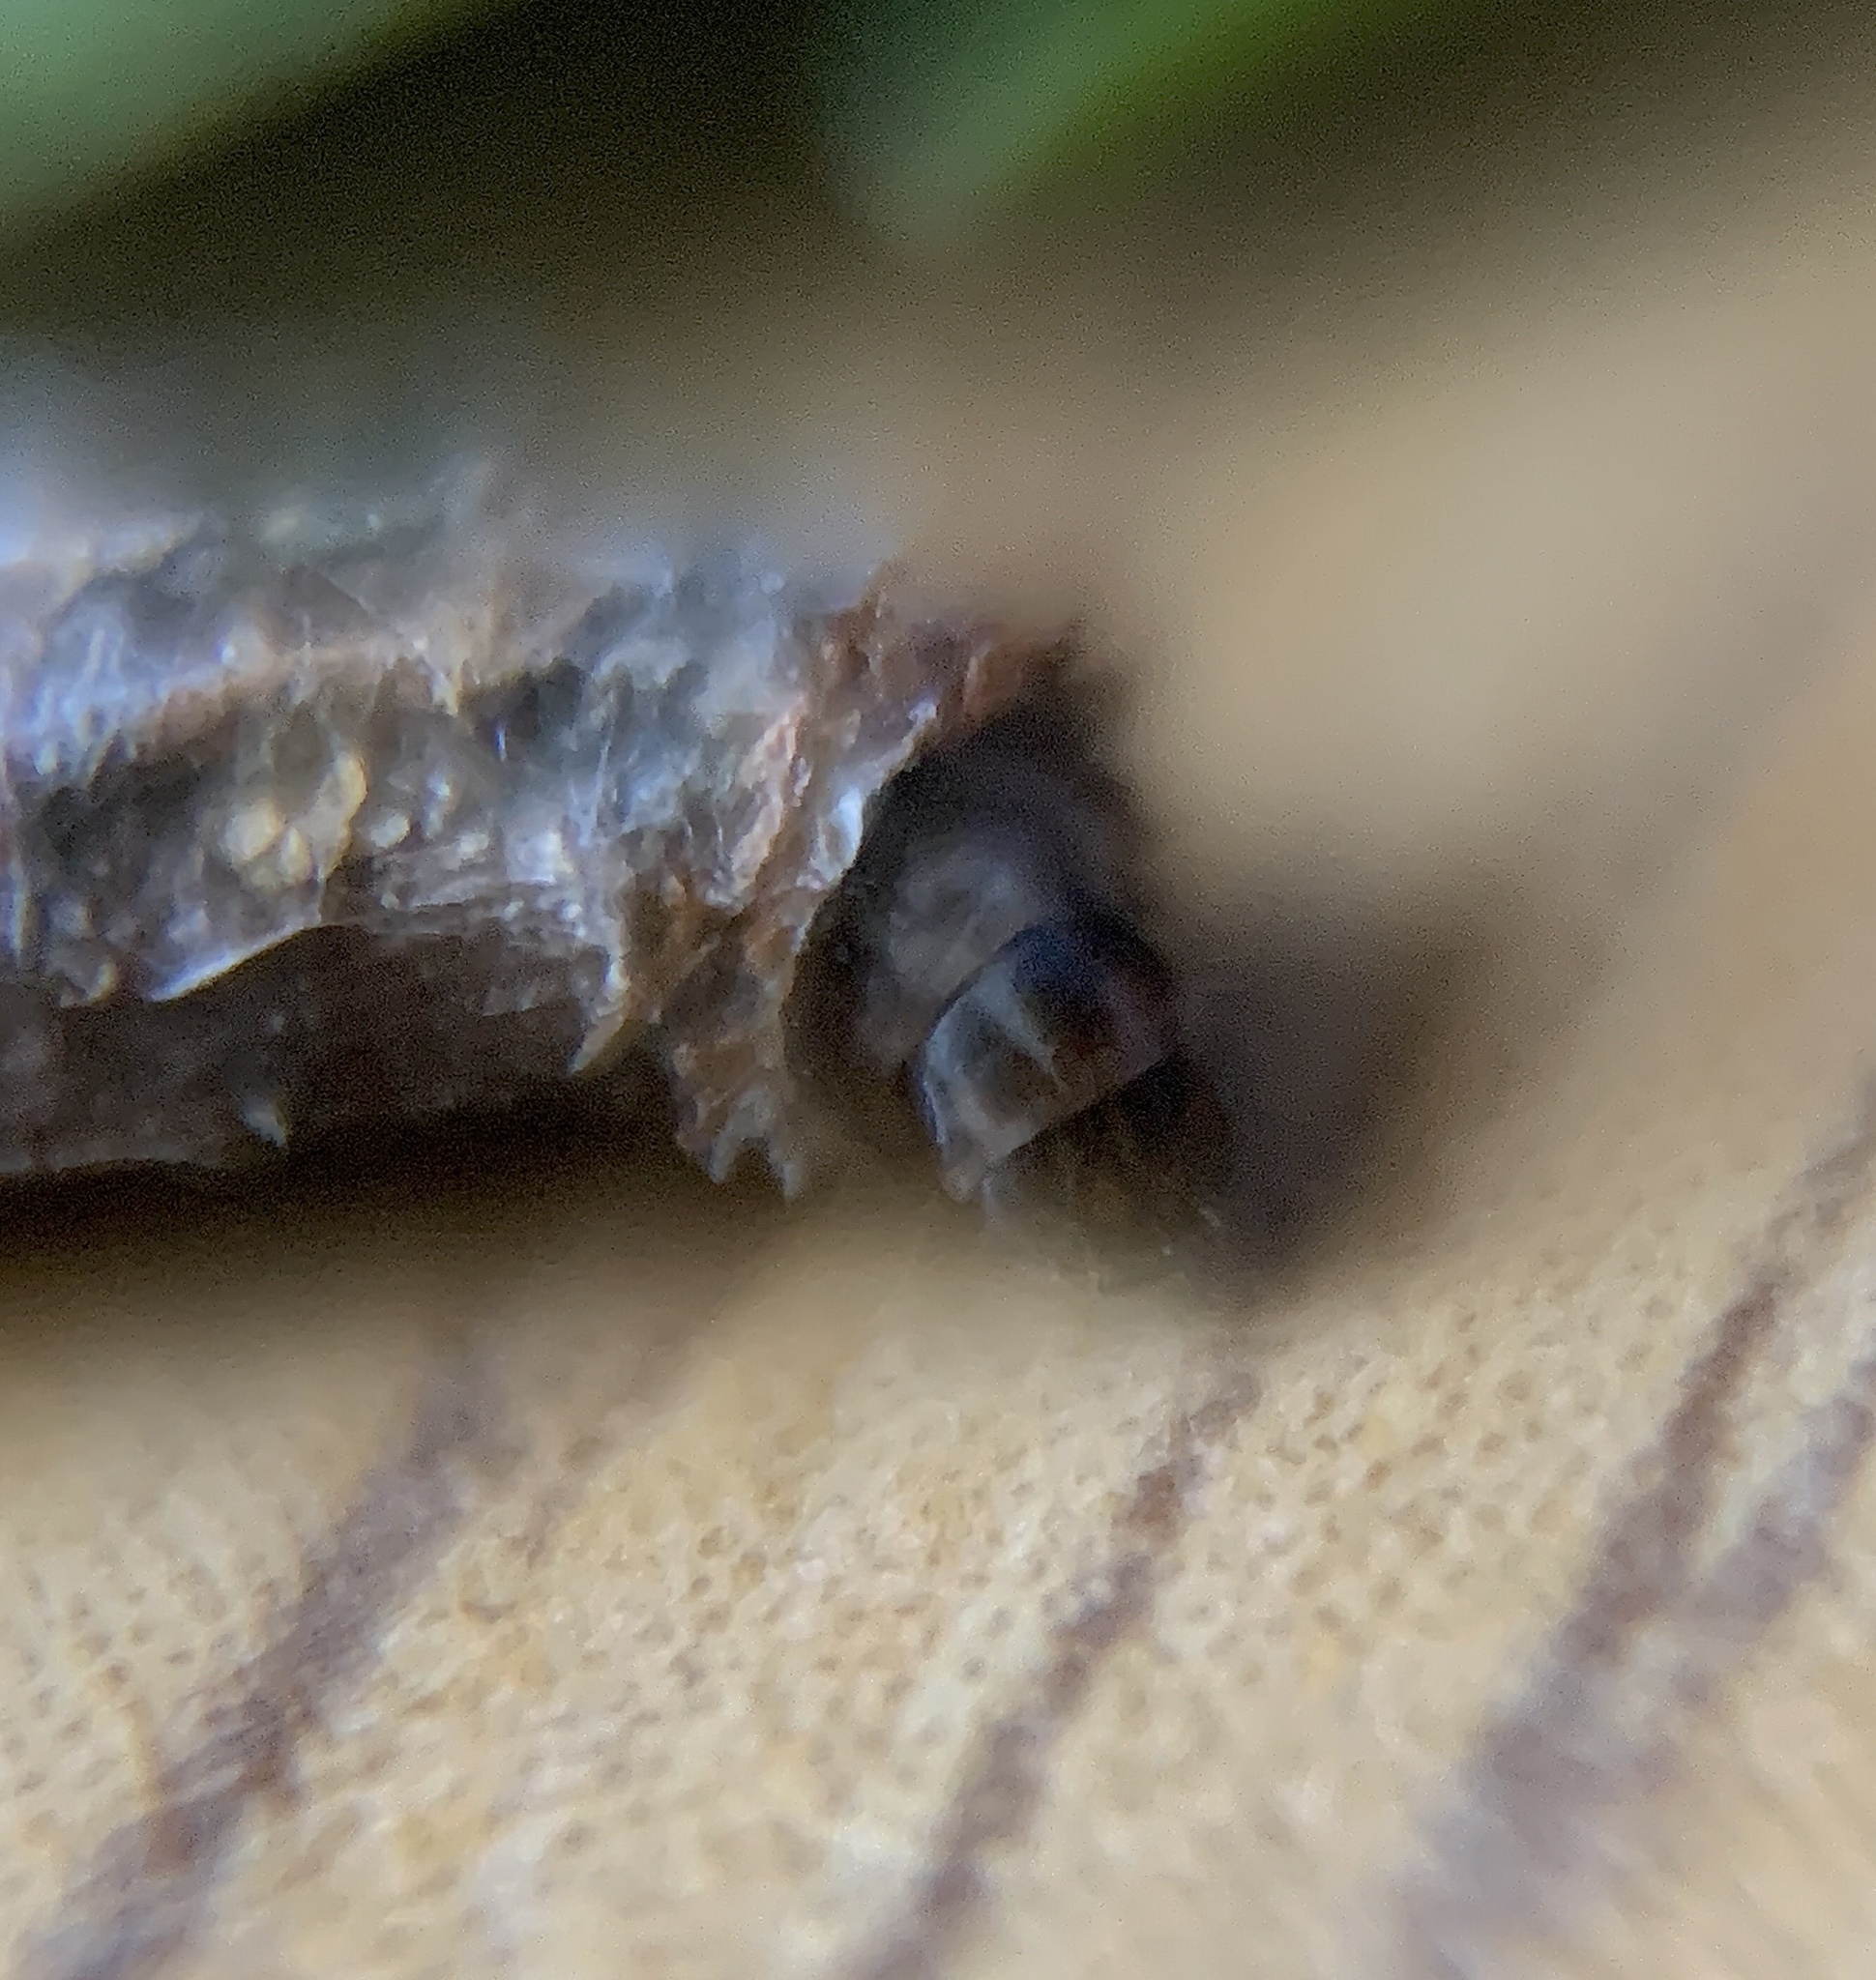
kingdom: Animalia
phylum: Arthropoda
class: Insecta
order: Lepidoptera
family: Psychidae
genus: Psyche
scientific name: Psyche casta
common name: Common sweep
